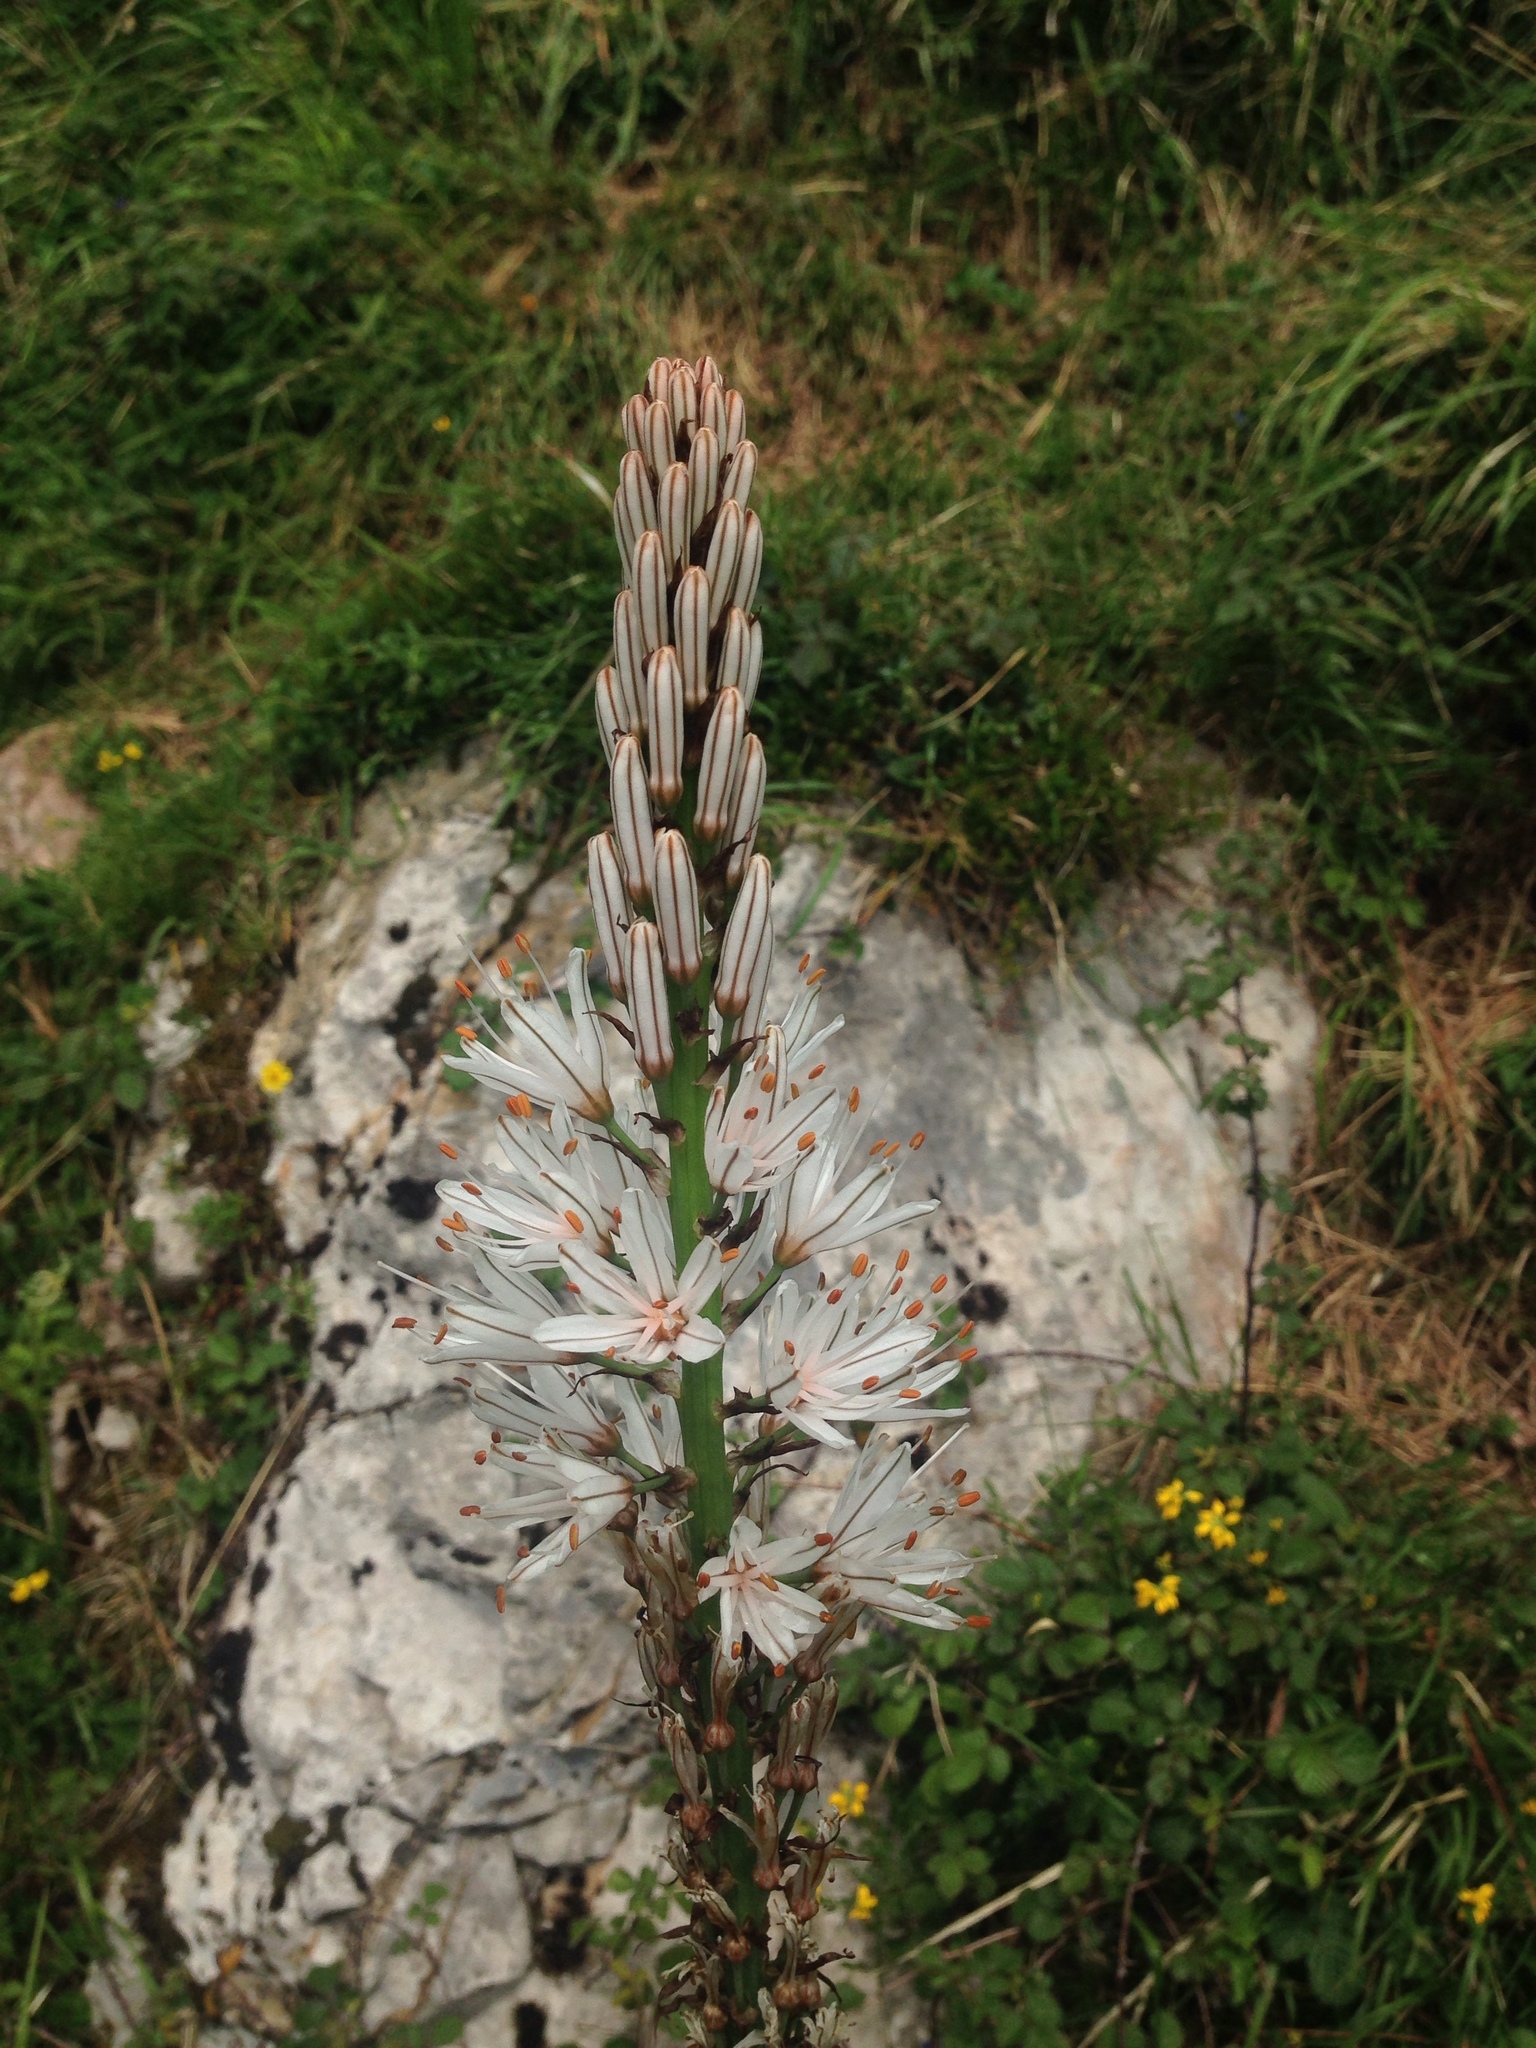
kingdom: Plantae
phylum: Tracheophyta
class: Liliopsida
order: Asparagales
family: Asphodelaceae
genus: Asphodelus
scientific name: Asphodelus albus
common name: White asphodel
